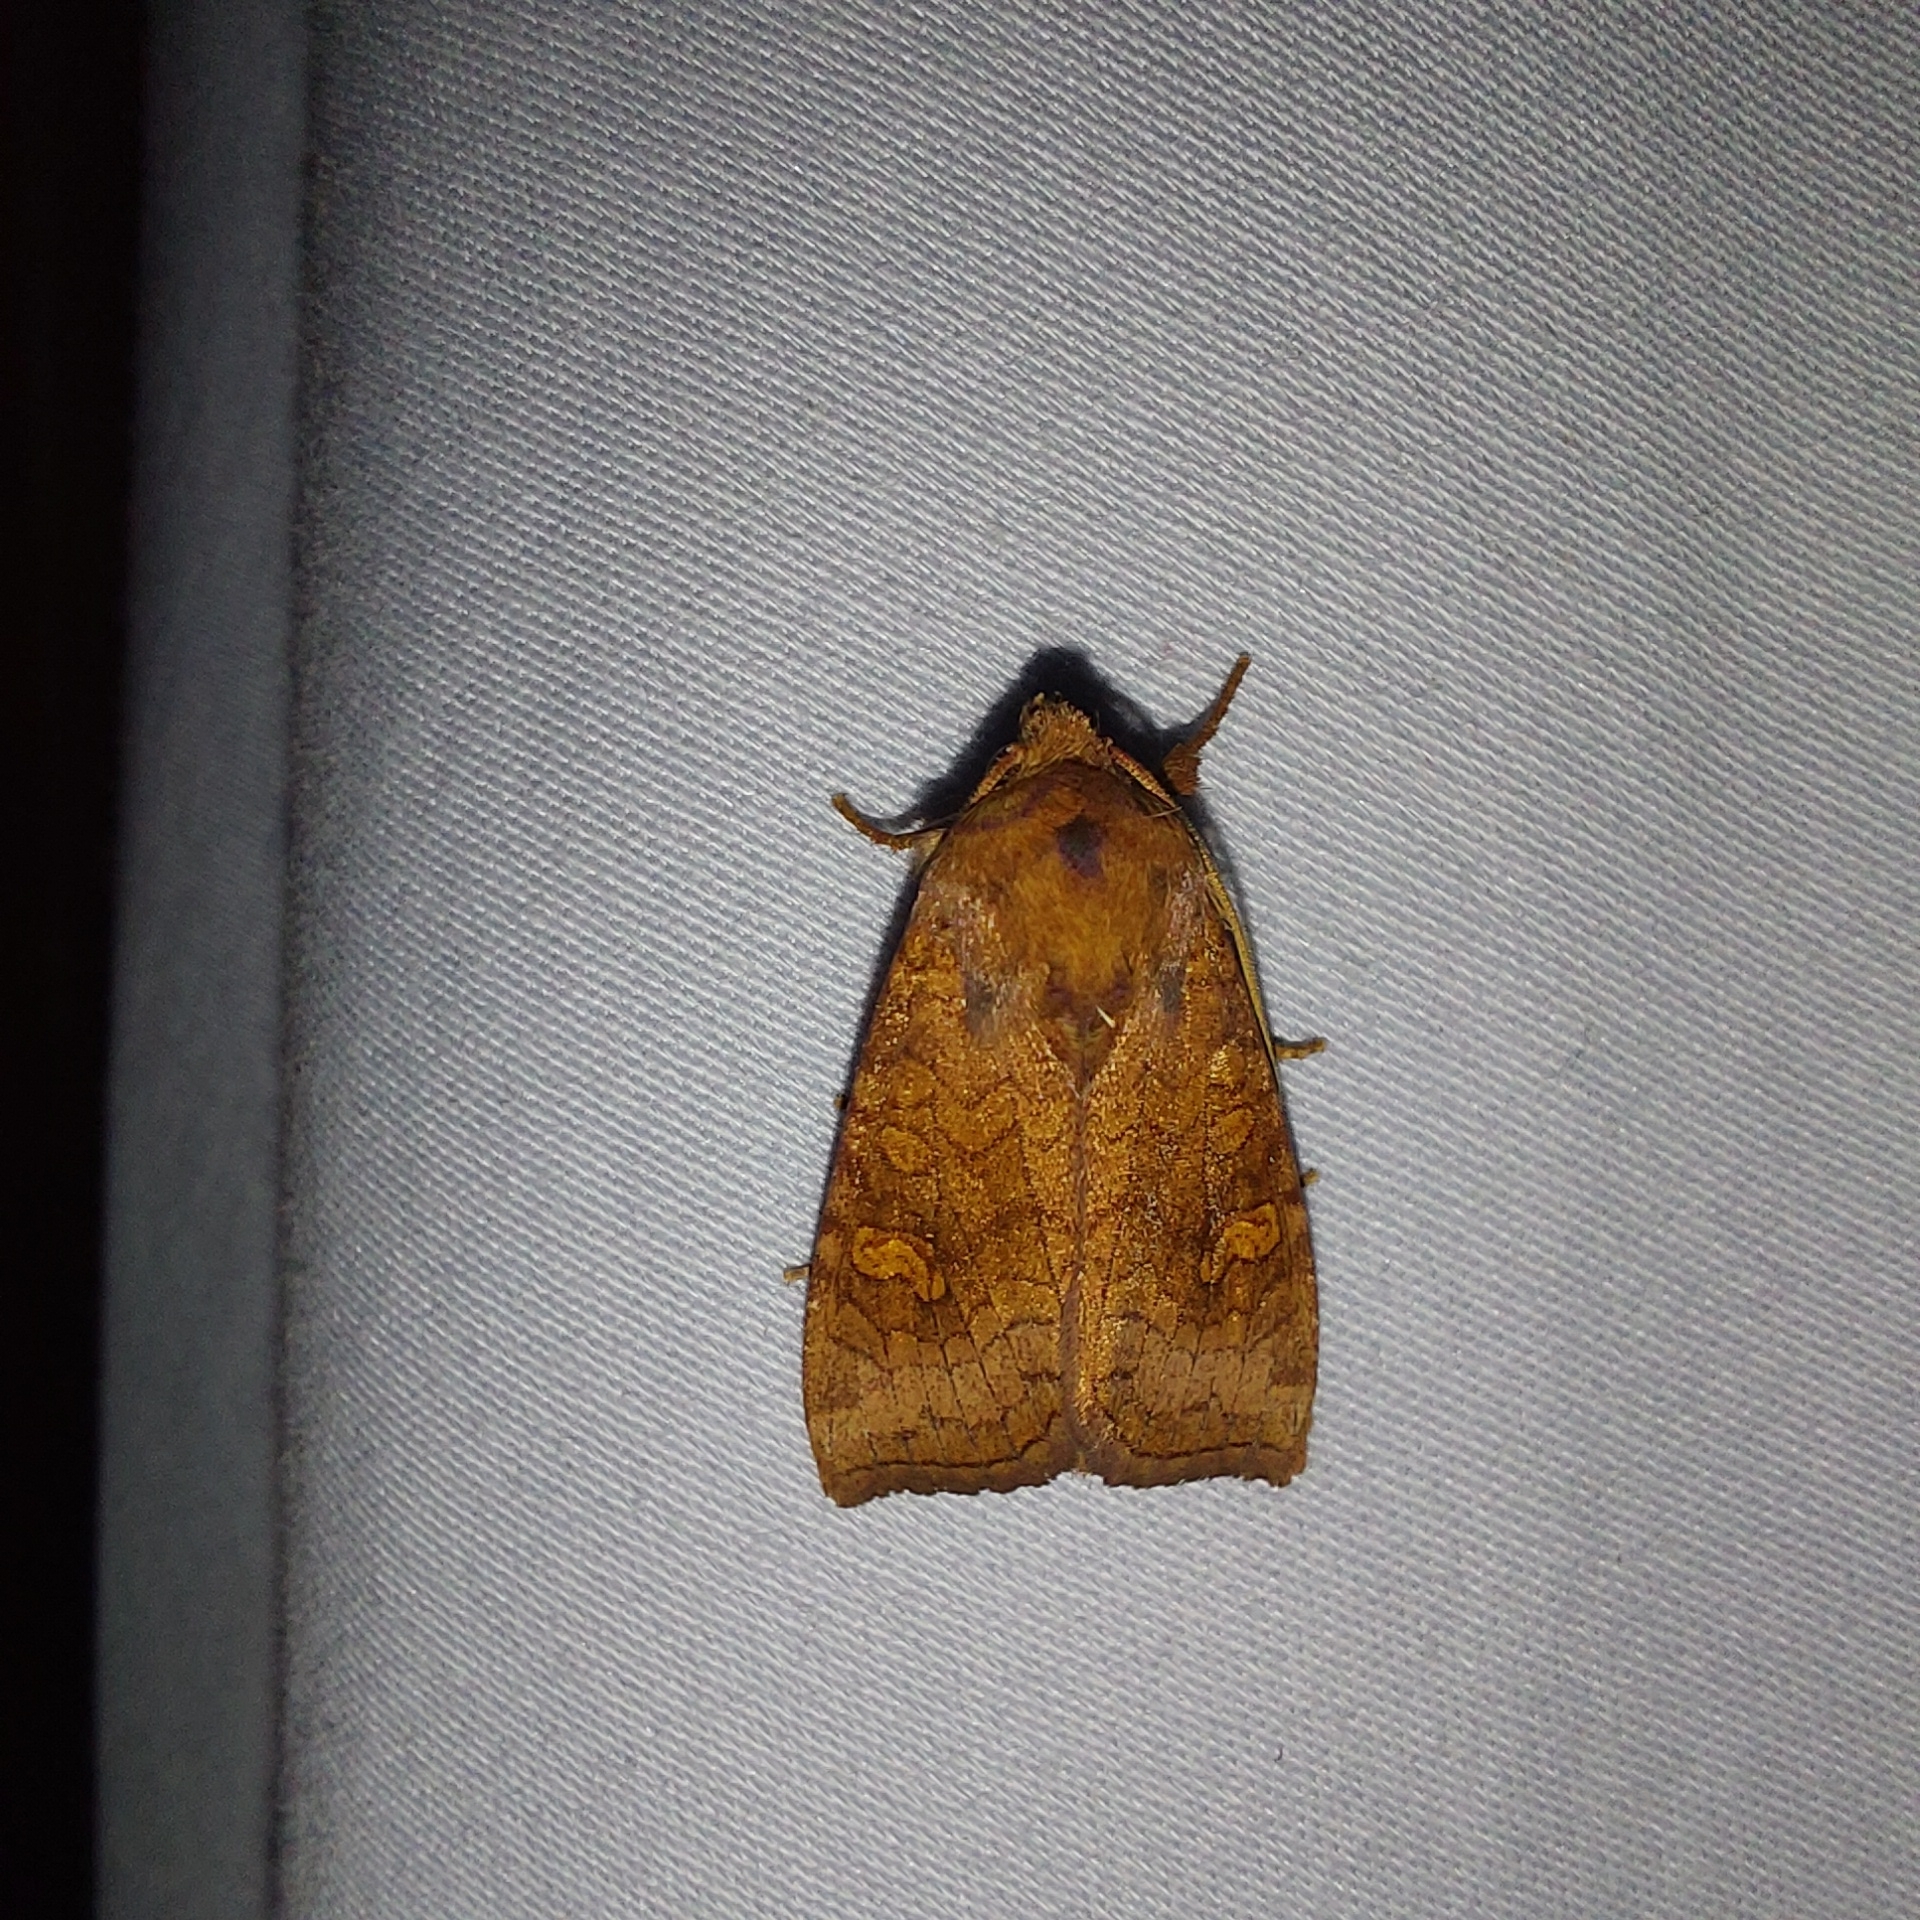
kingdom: Animalia
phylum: Arthropoda
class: Insecta
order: Lepidoptera
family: Noctuidae
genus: Amphipoea
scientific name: Amphipoea
